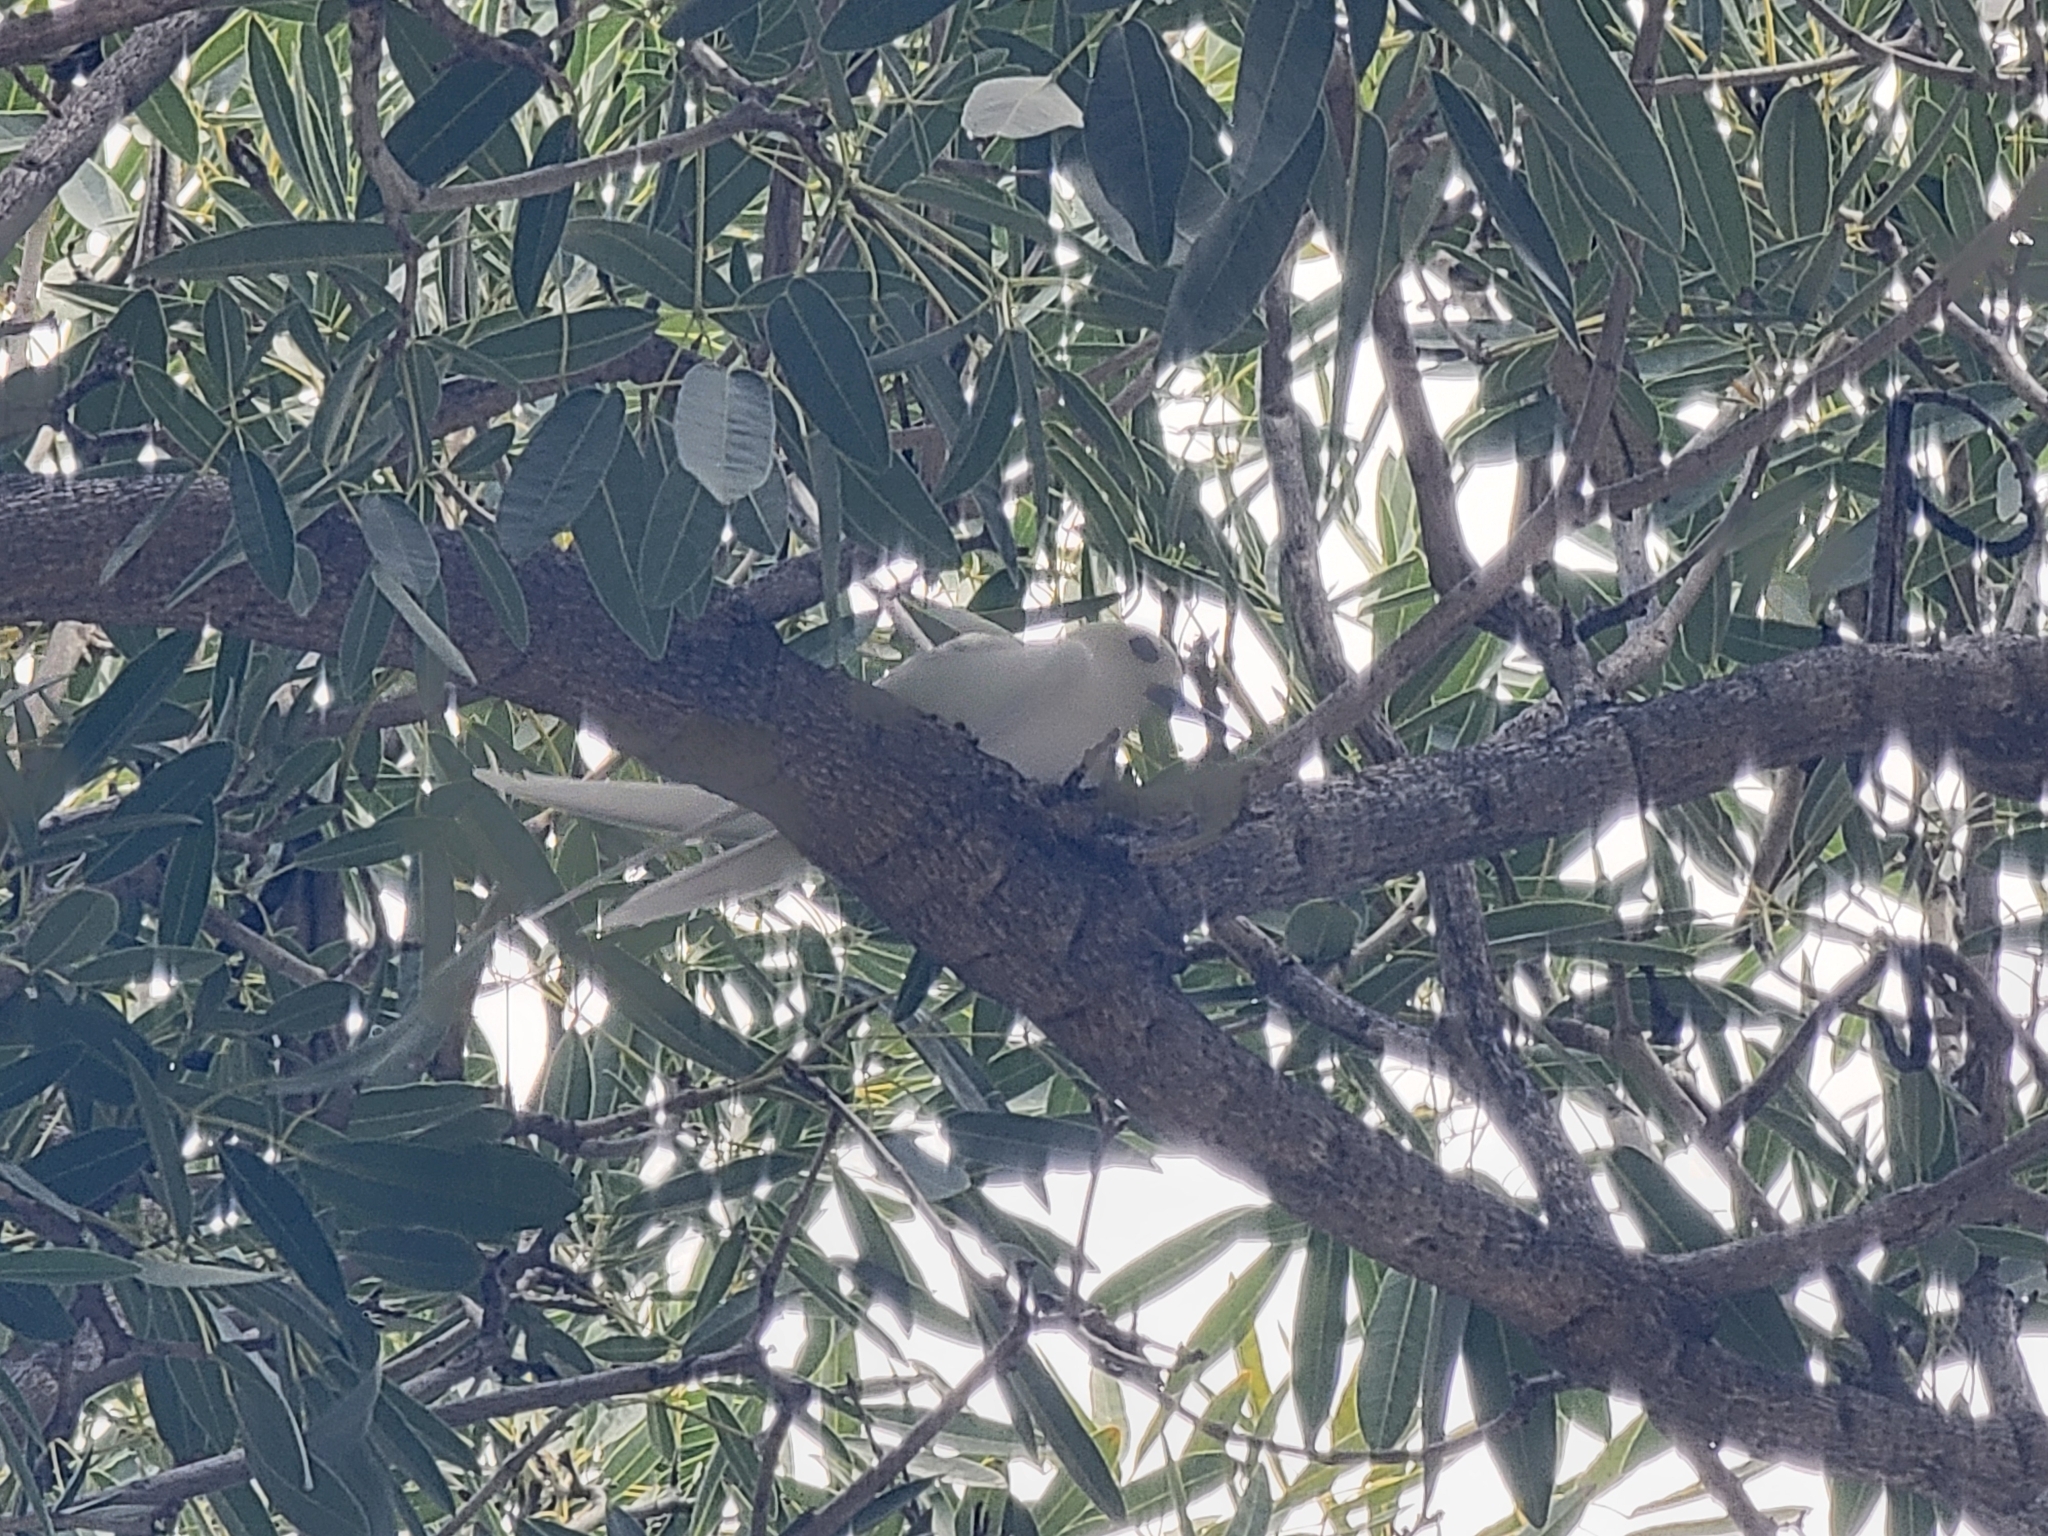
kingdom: Animalia
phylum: Chordata
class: Aves
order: Charadriiformes
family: Laridae
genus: Gygis
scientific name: Gygis alba
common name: White tern
